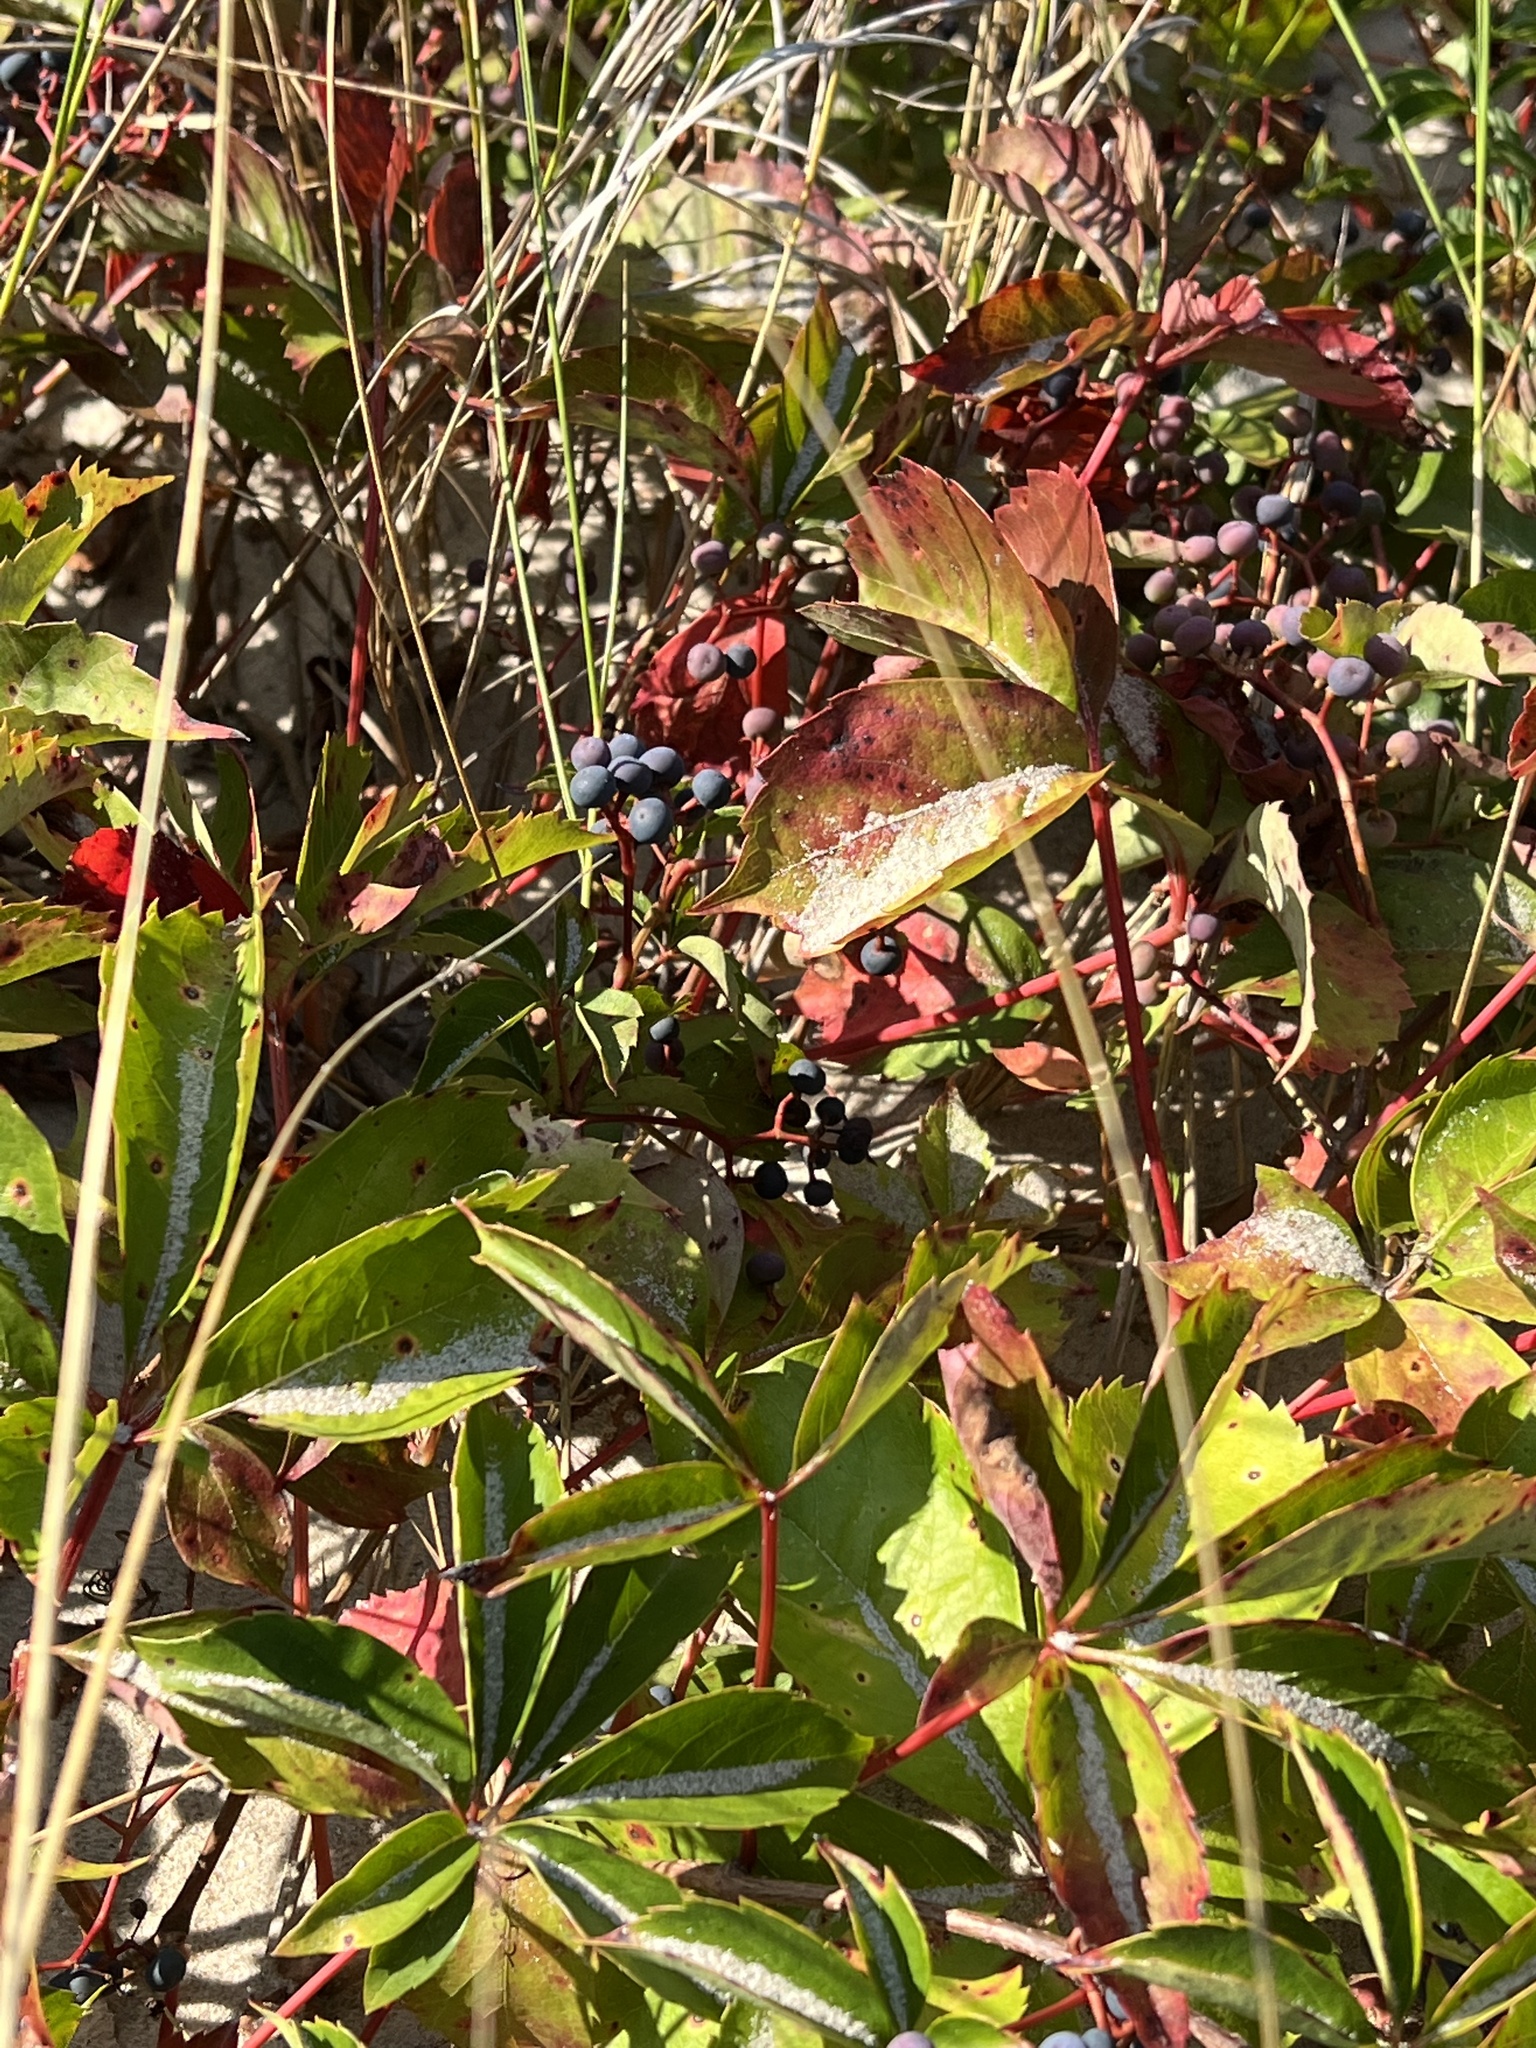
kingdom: Plantae
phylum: Tracheophyta
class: Magnoliopsida
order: Vitales
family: Vitaceae
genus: Parthenocissus
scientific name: Parthenocissus inserta
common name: False virginia-creeper
